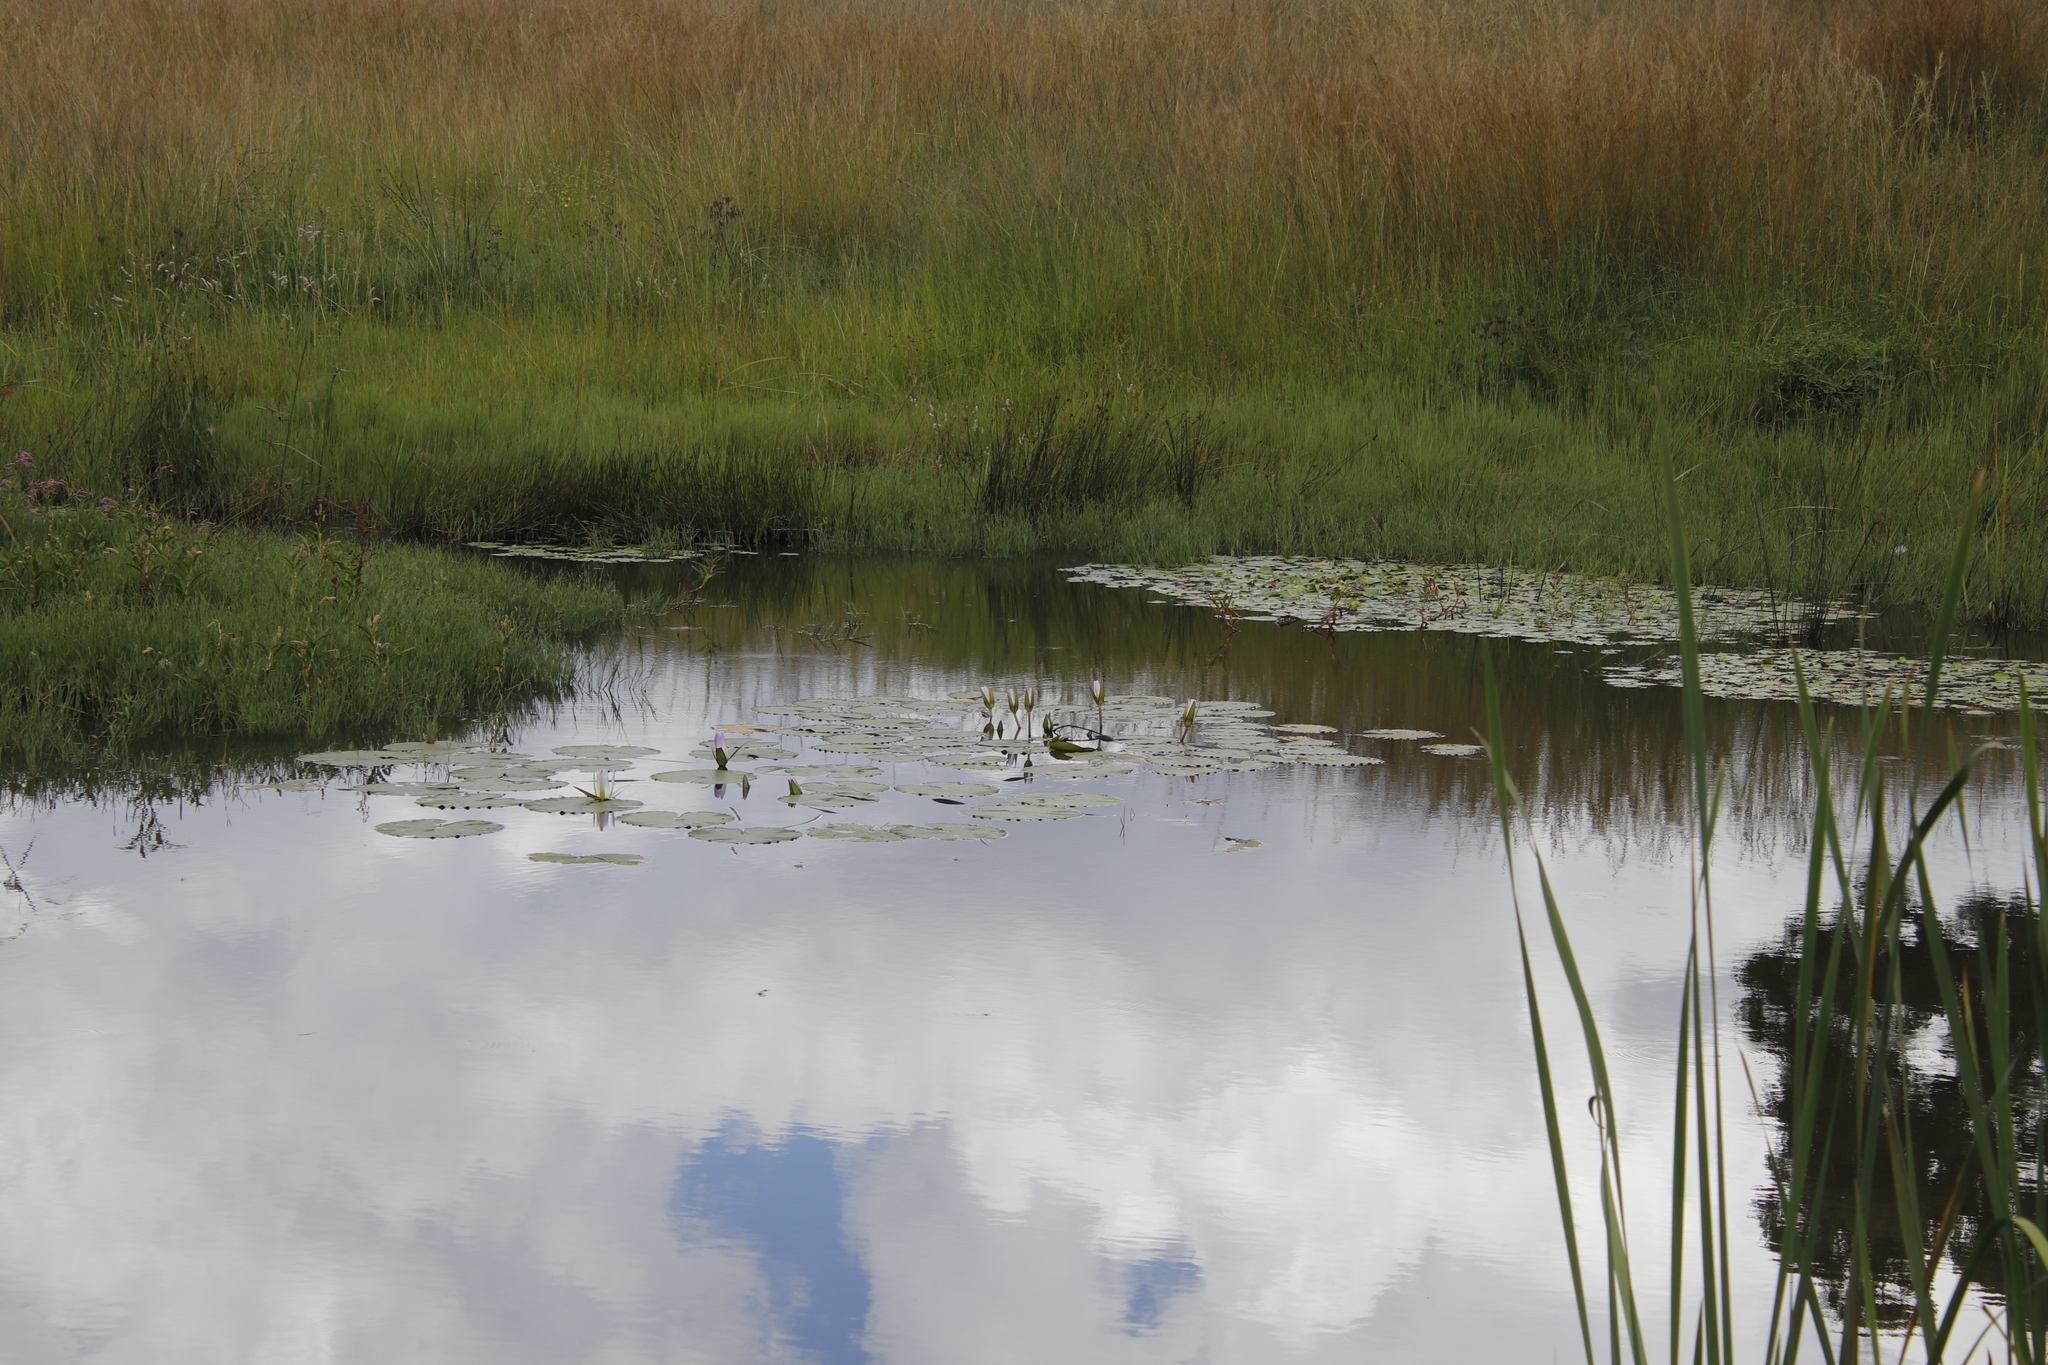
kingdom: Plantae
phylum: Tracheophyta
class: Magnoliopsida
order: Nymphaeales
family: Nymphaeaceae
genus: Nymphaea
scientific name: Nymphaea nouchali
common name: Blue lotus
